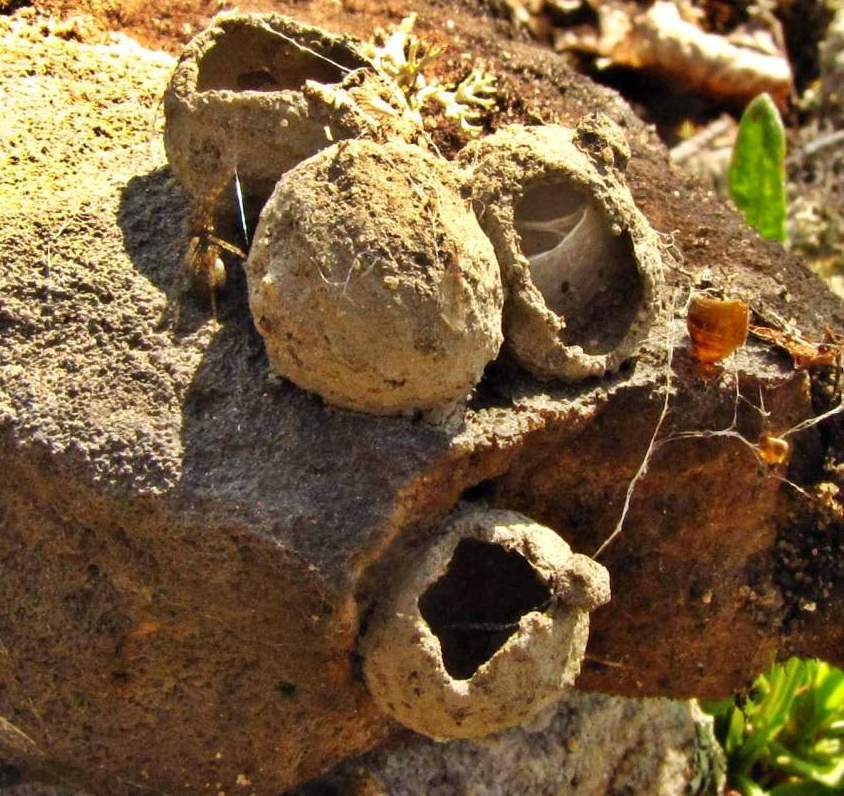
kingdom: Animalia
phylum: Arthropoda
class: Insecta
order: Hymenoptera
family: Vespidae
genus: Eumenes
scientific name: Eumenes
